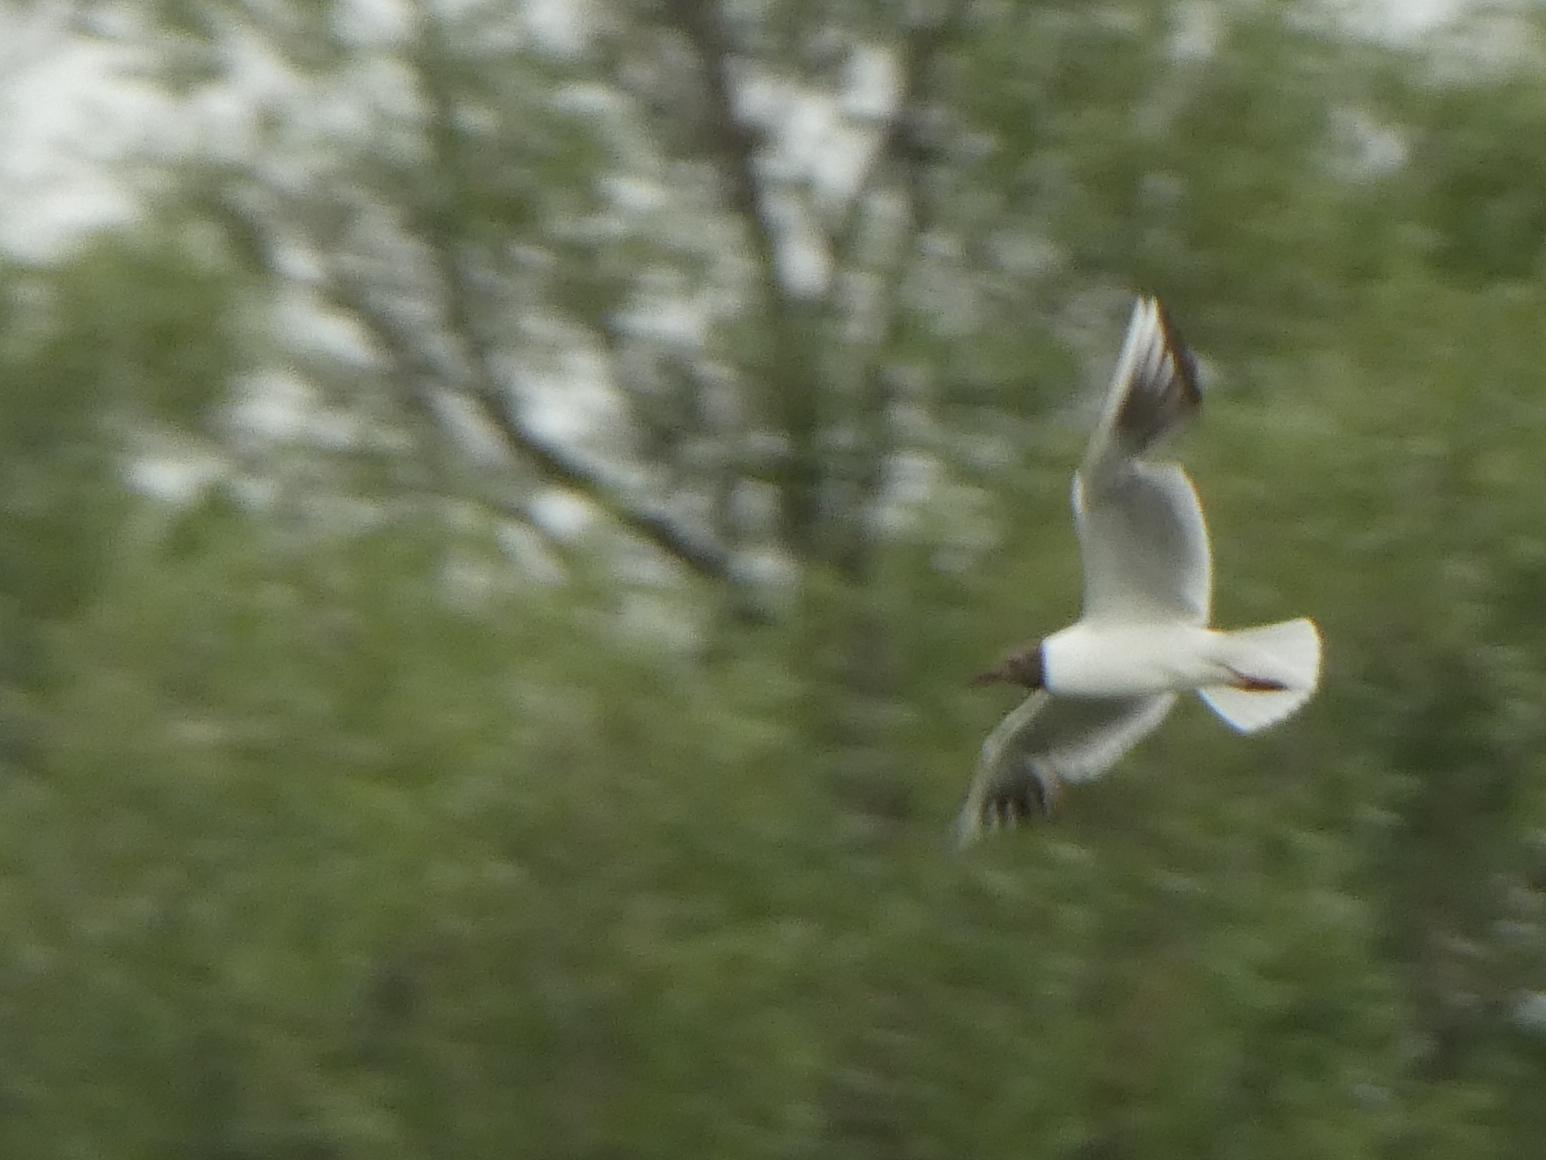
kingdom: Animalia
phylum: Chordata
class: Aves
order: Charadriiformes
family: Laridae
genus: Chroicocephalus
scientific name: Chroicocephalus ridibundus
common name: Black-headed gull
